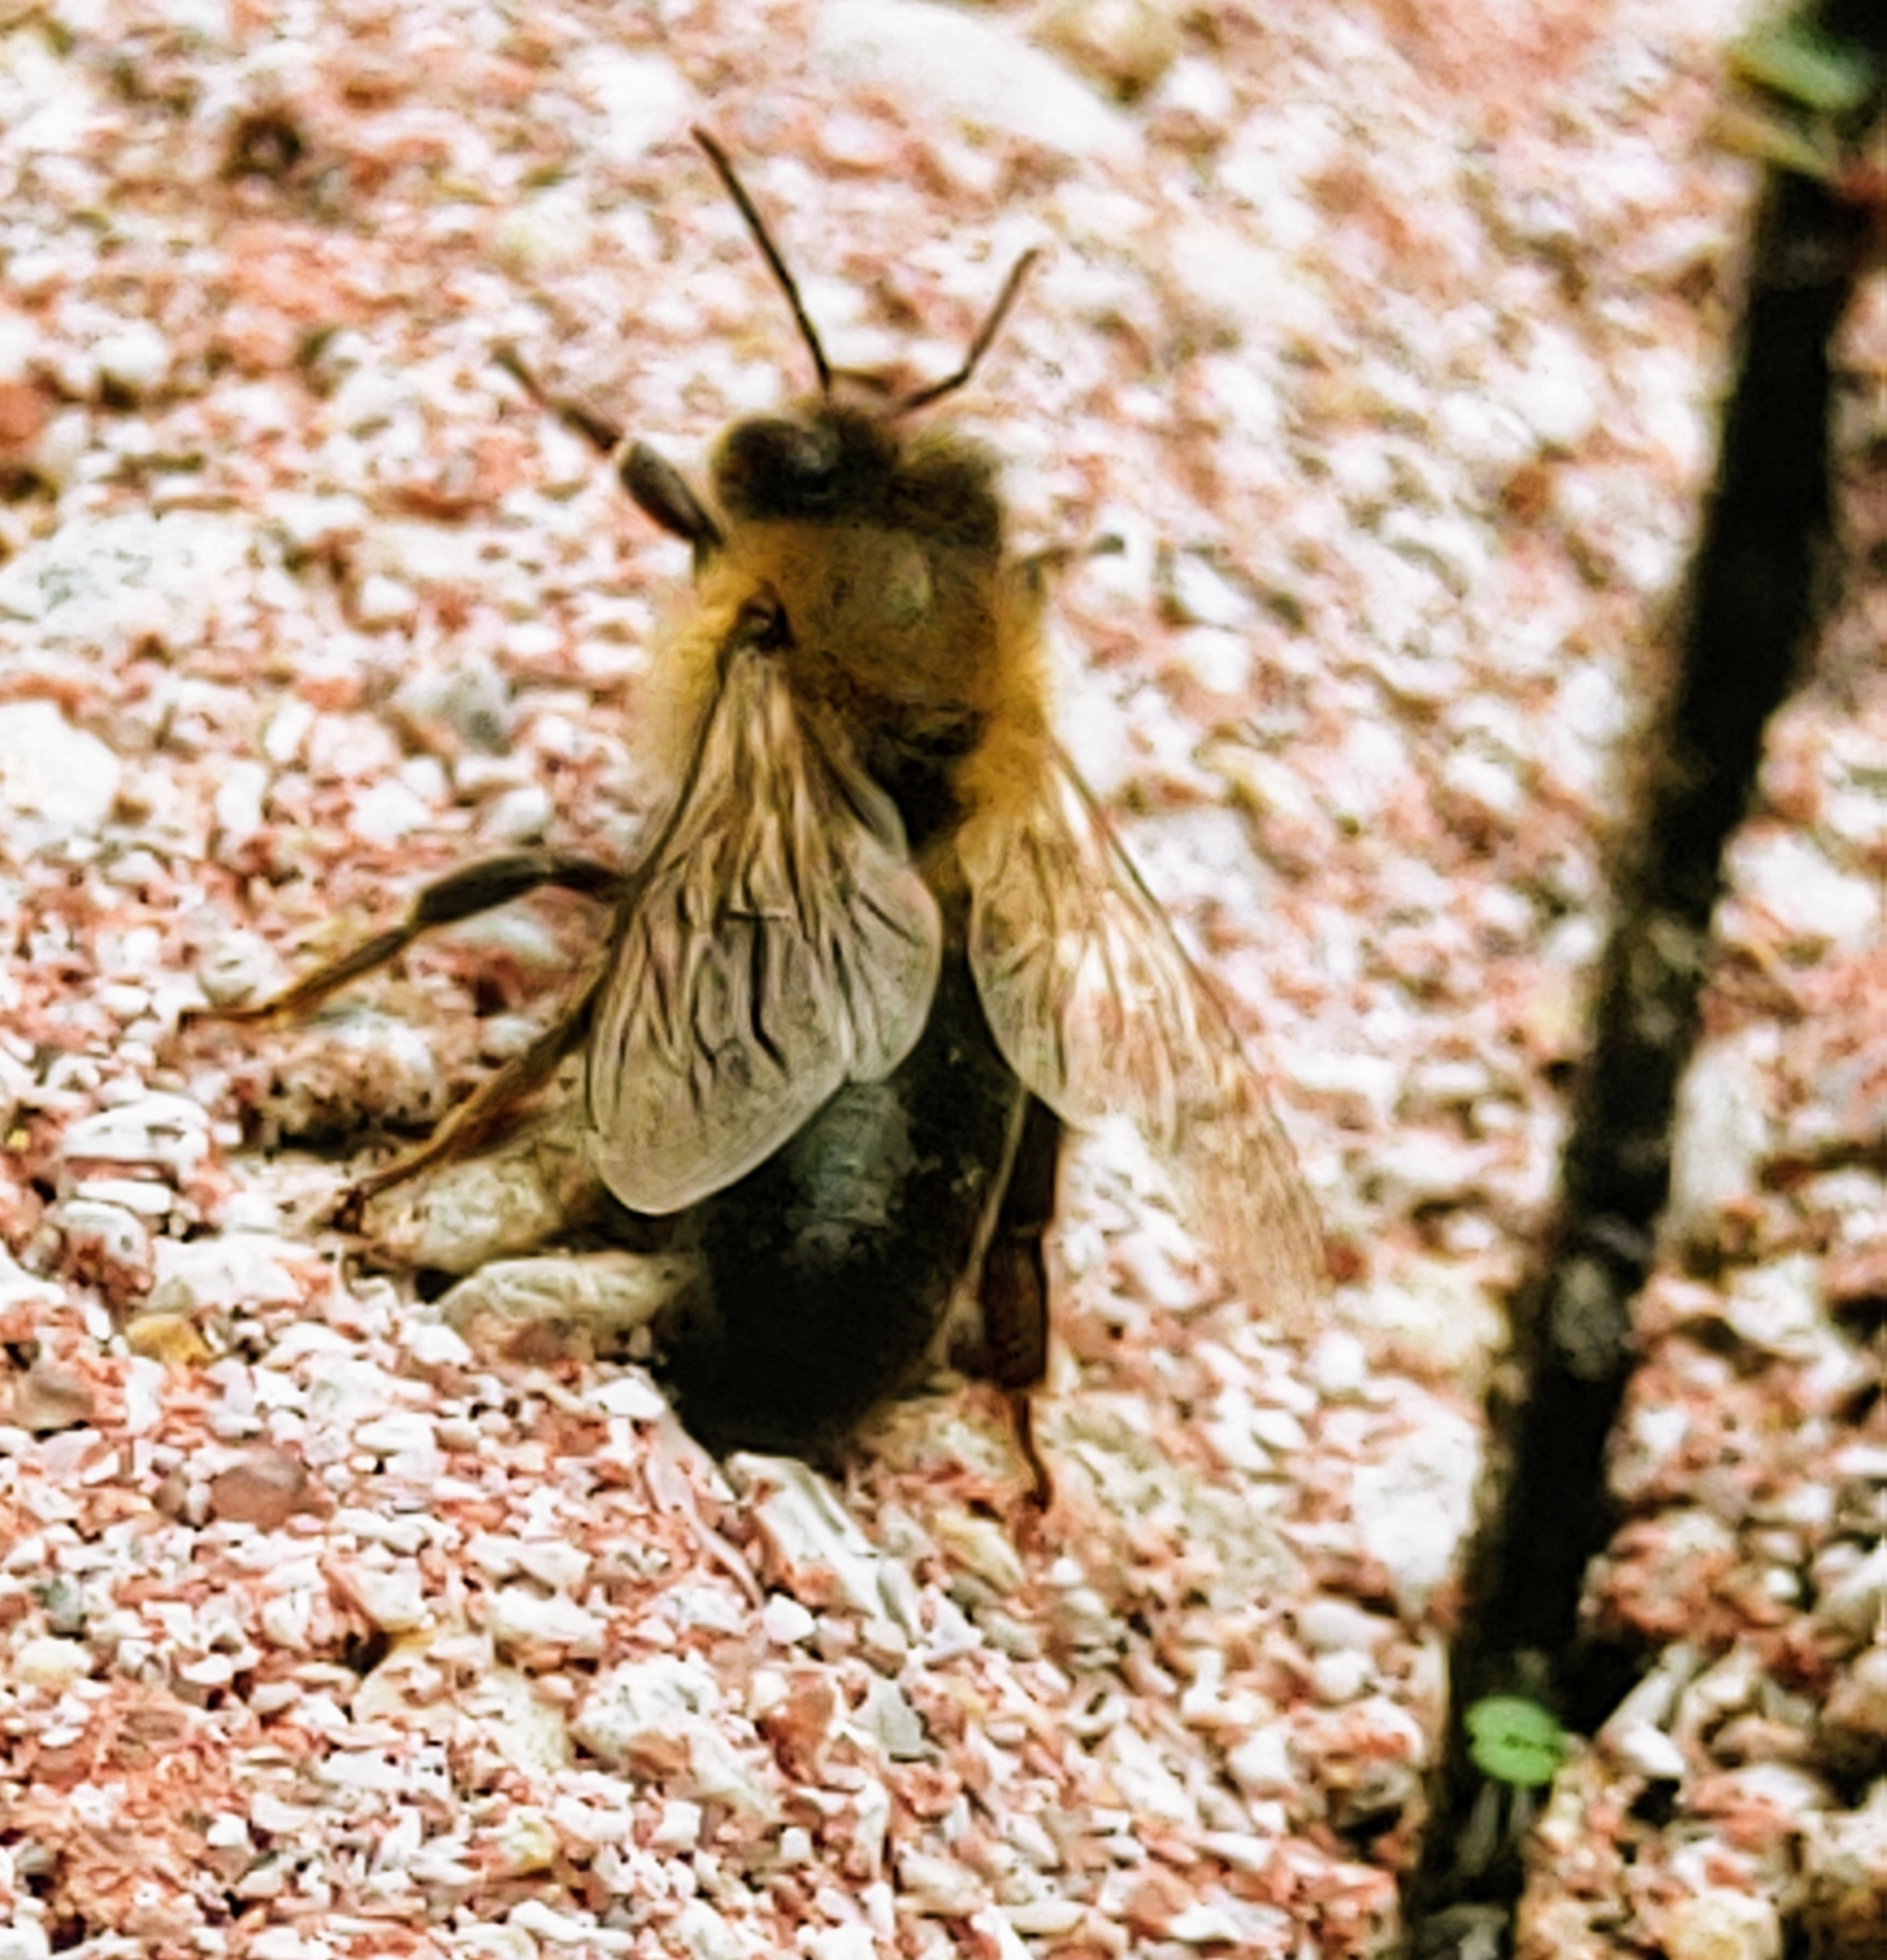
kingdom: Animalia
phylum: Arthropoda
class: Insecta
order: Hymenoptera
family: Apidae
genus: Apis
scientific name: Apis mellifera
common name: Honey bee
